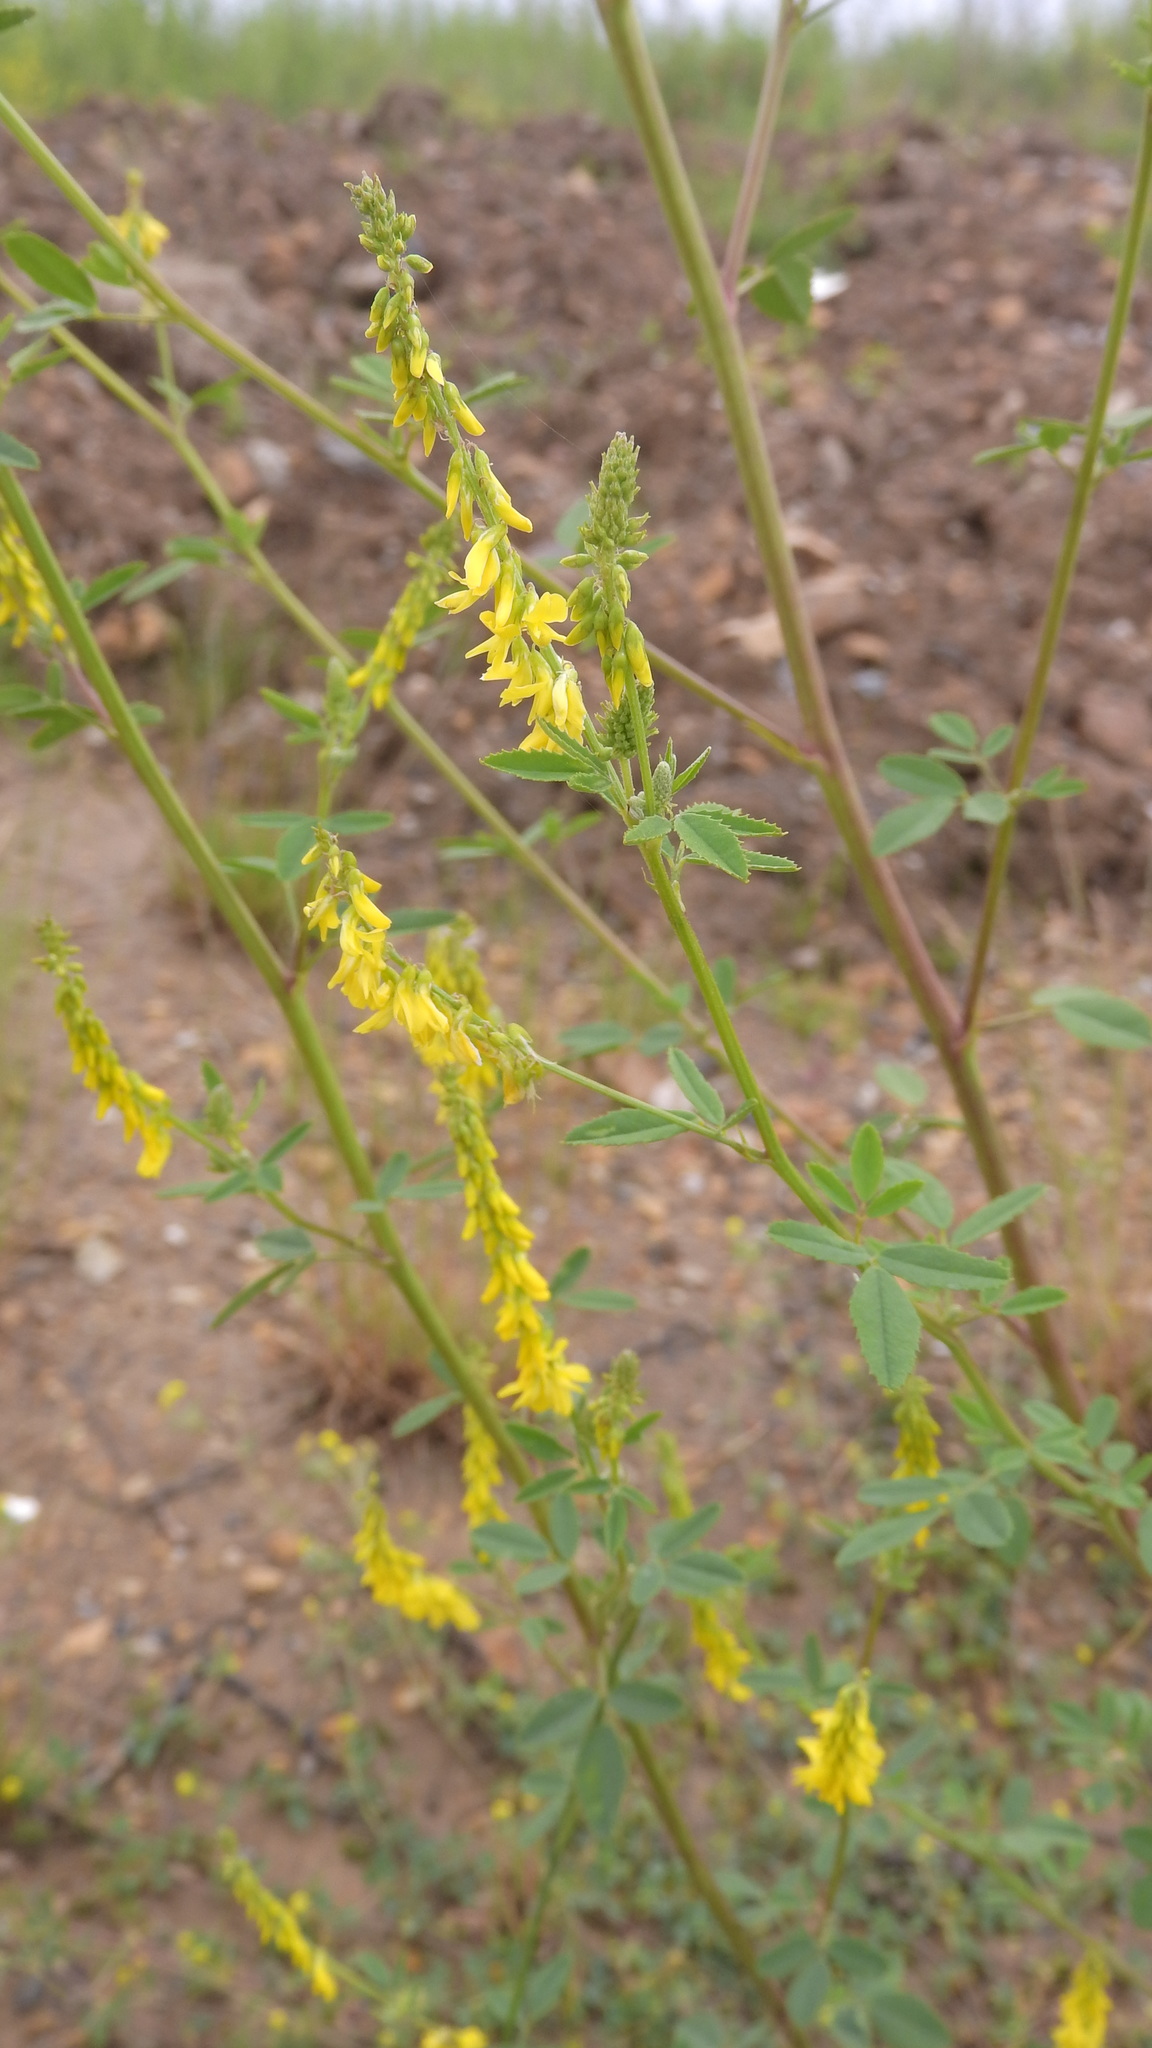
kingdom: Plantae
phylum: Tracheophyta
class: Magnoliopsida
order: Fabales
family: Fabaceae
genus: Melilotus
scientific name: Melilotus officinalis
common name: Sweetclover
